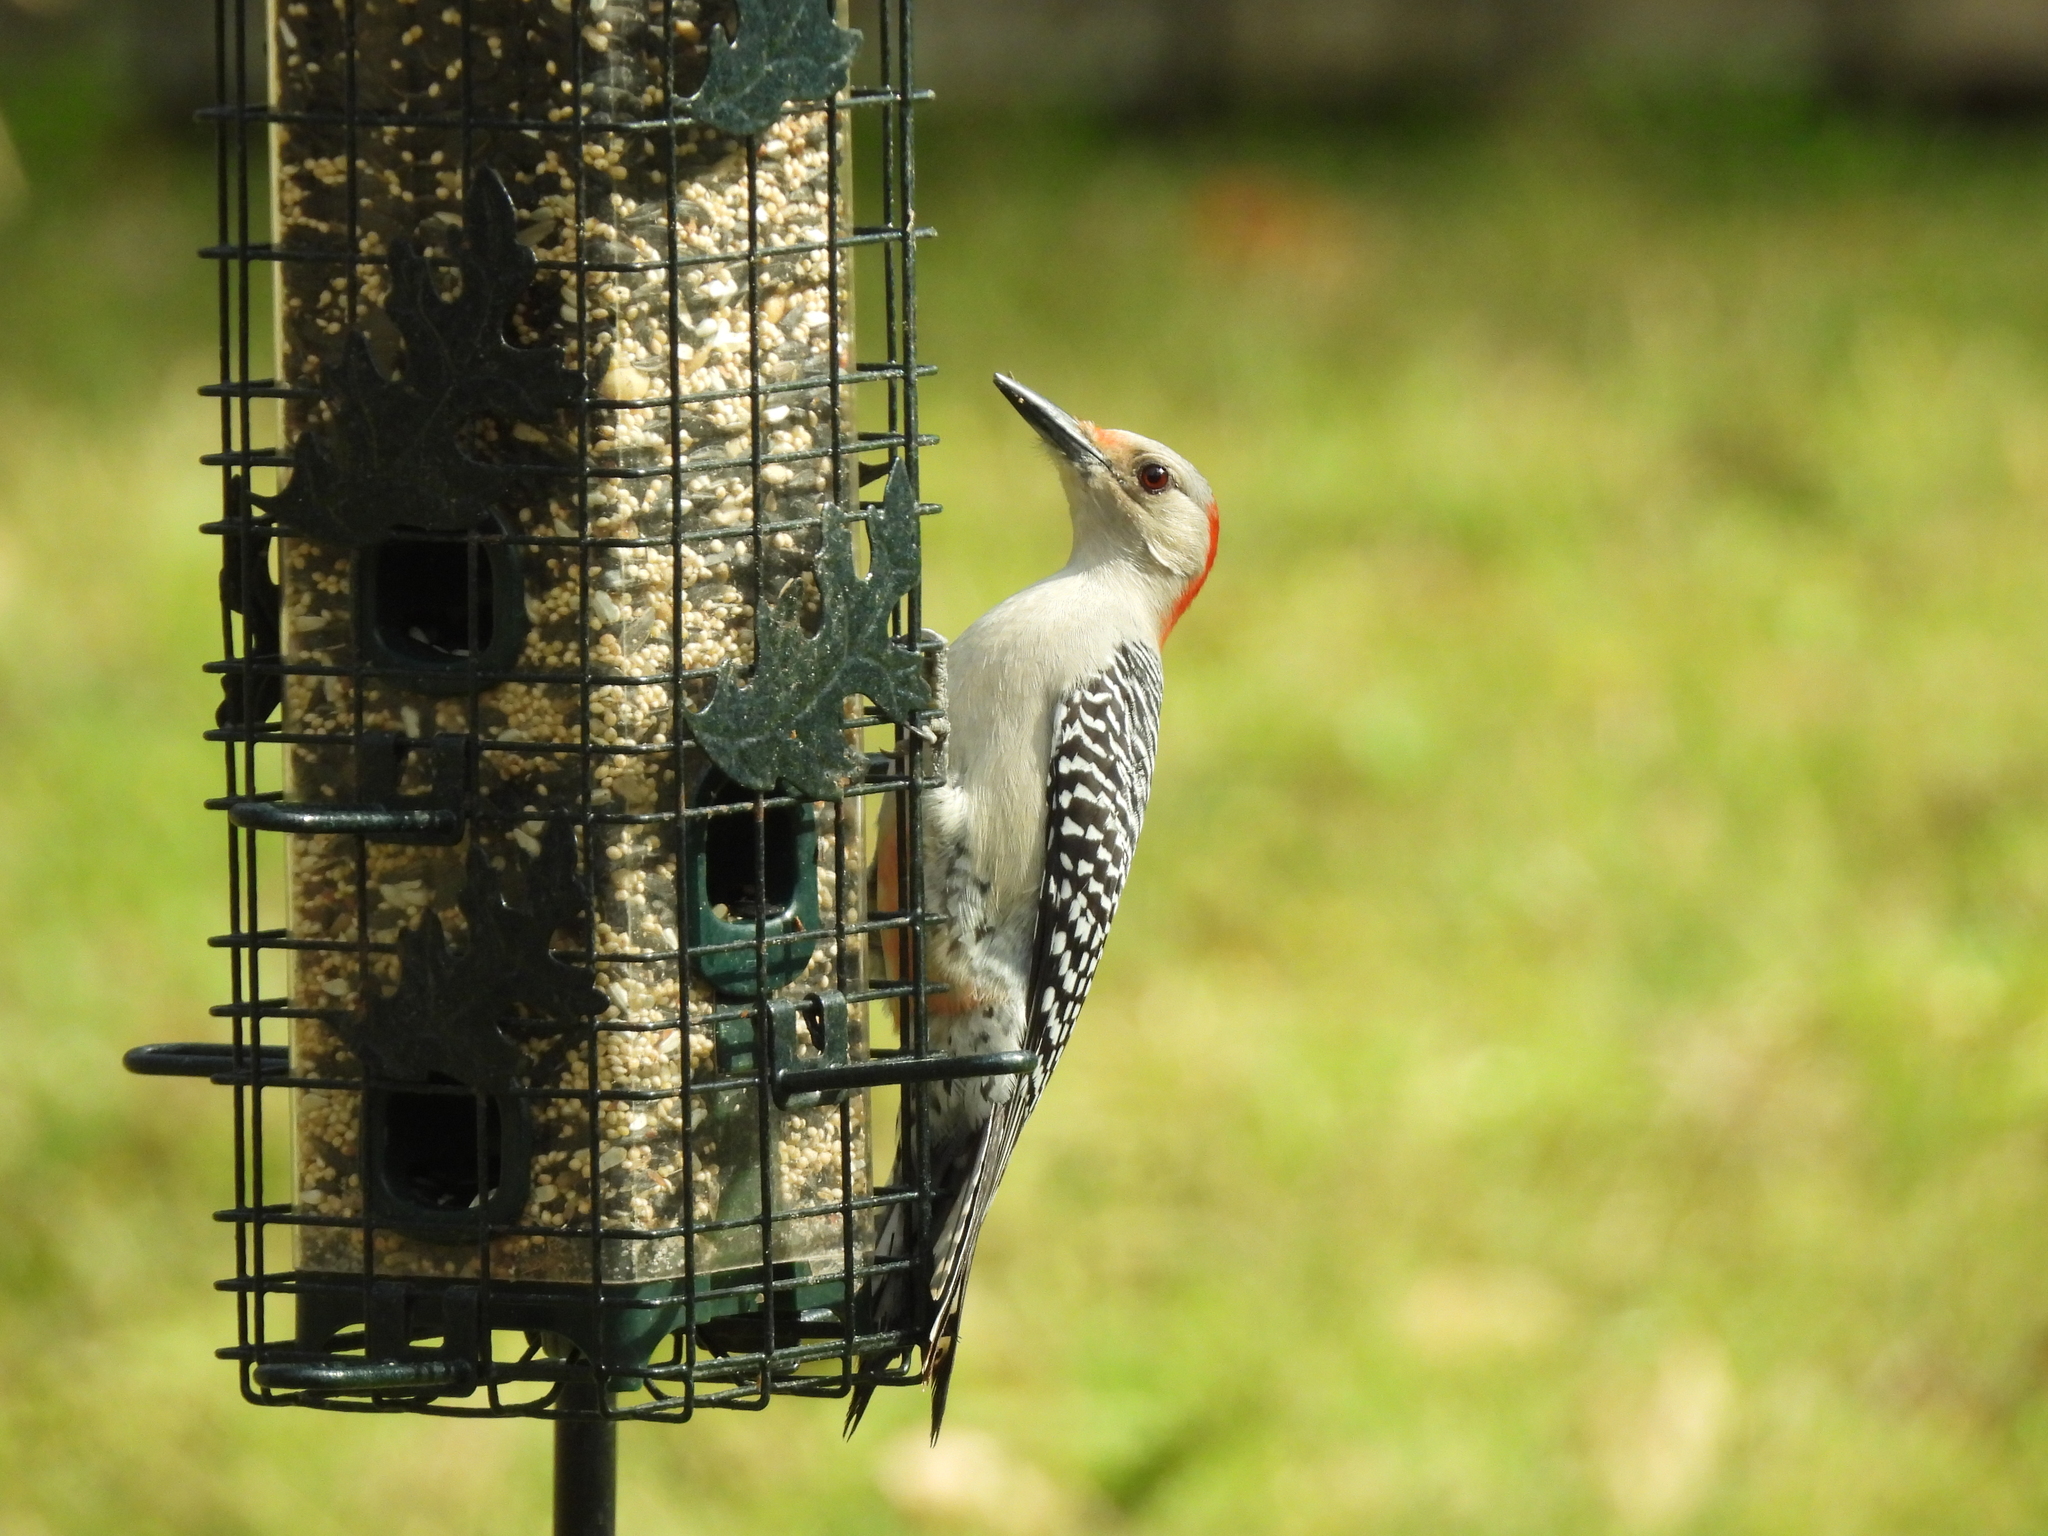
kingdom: Animalia
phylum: Chordata
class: Aves
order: Piciformes
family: Picidae
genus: Melanerpes
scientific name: Melanerpes carolinus
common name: Red-bellied woodpecker
